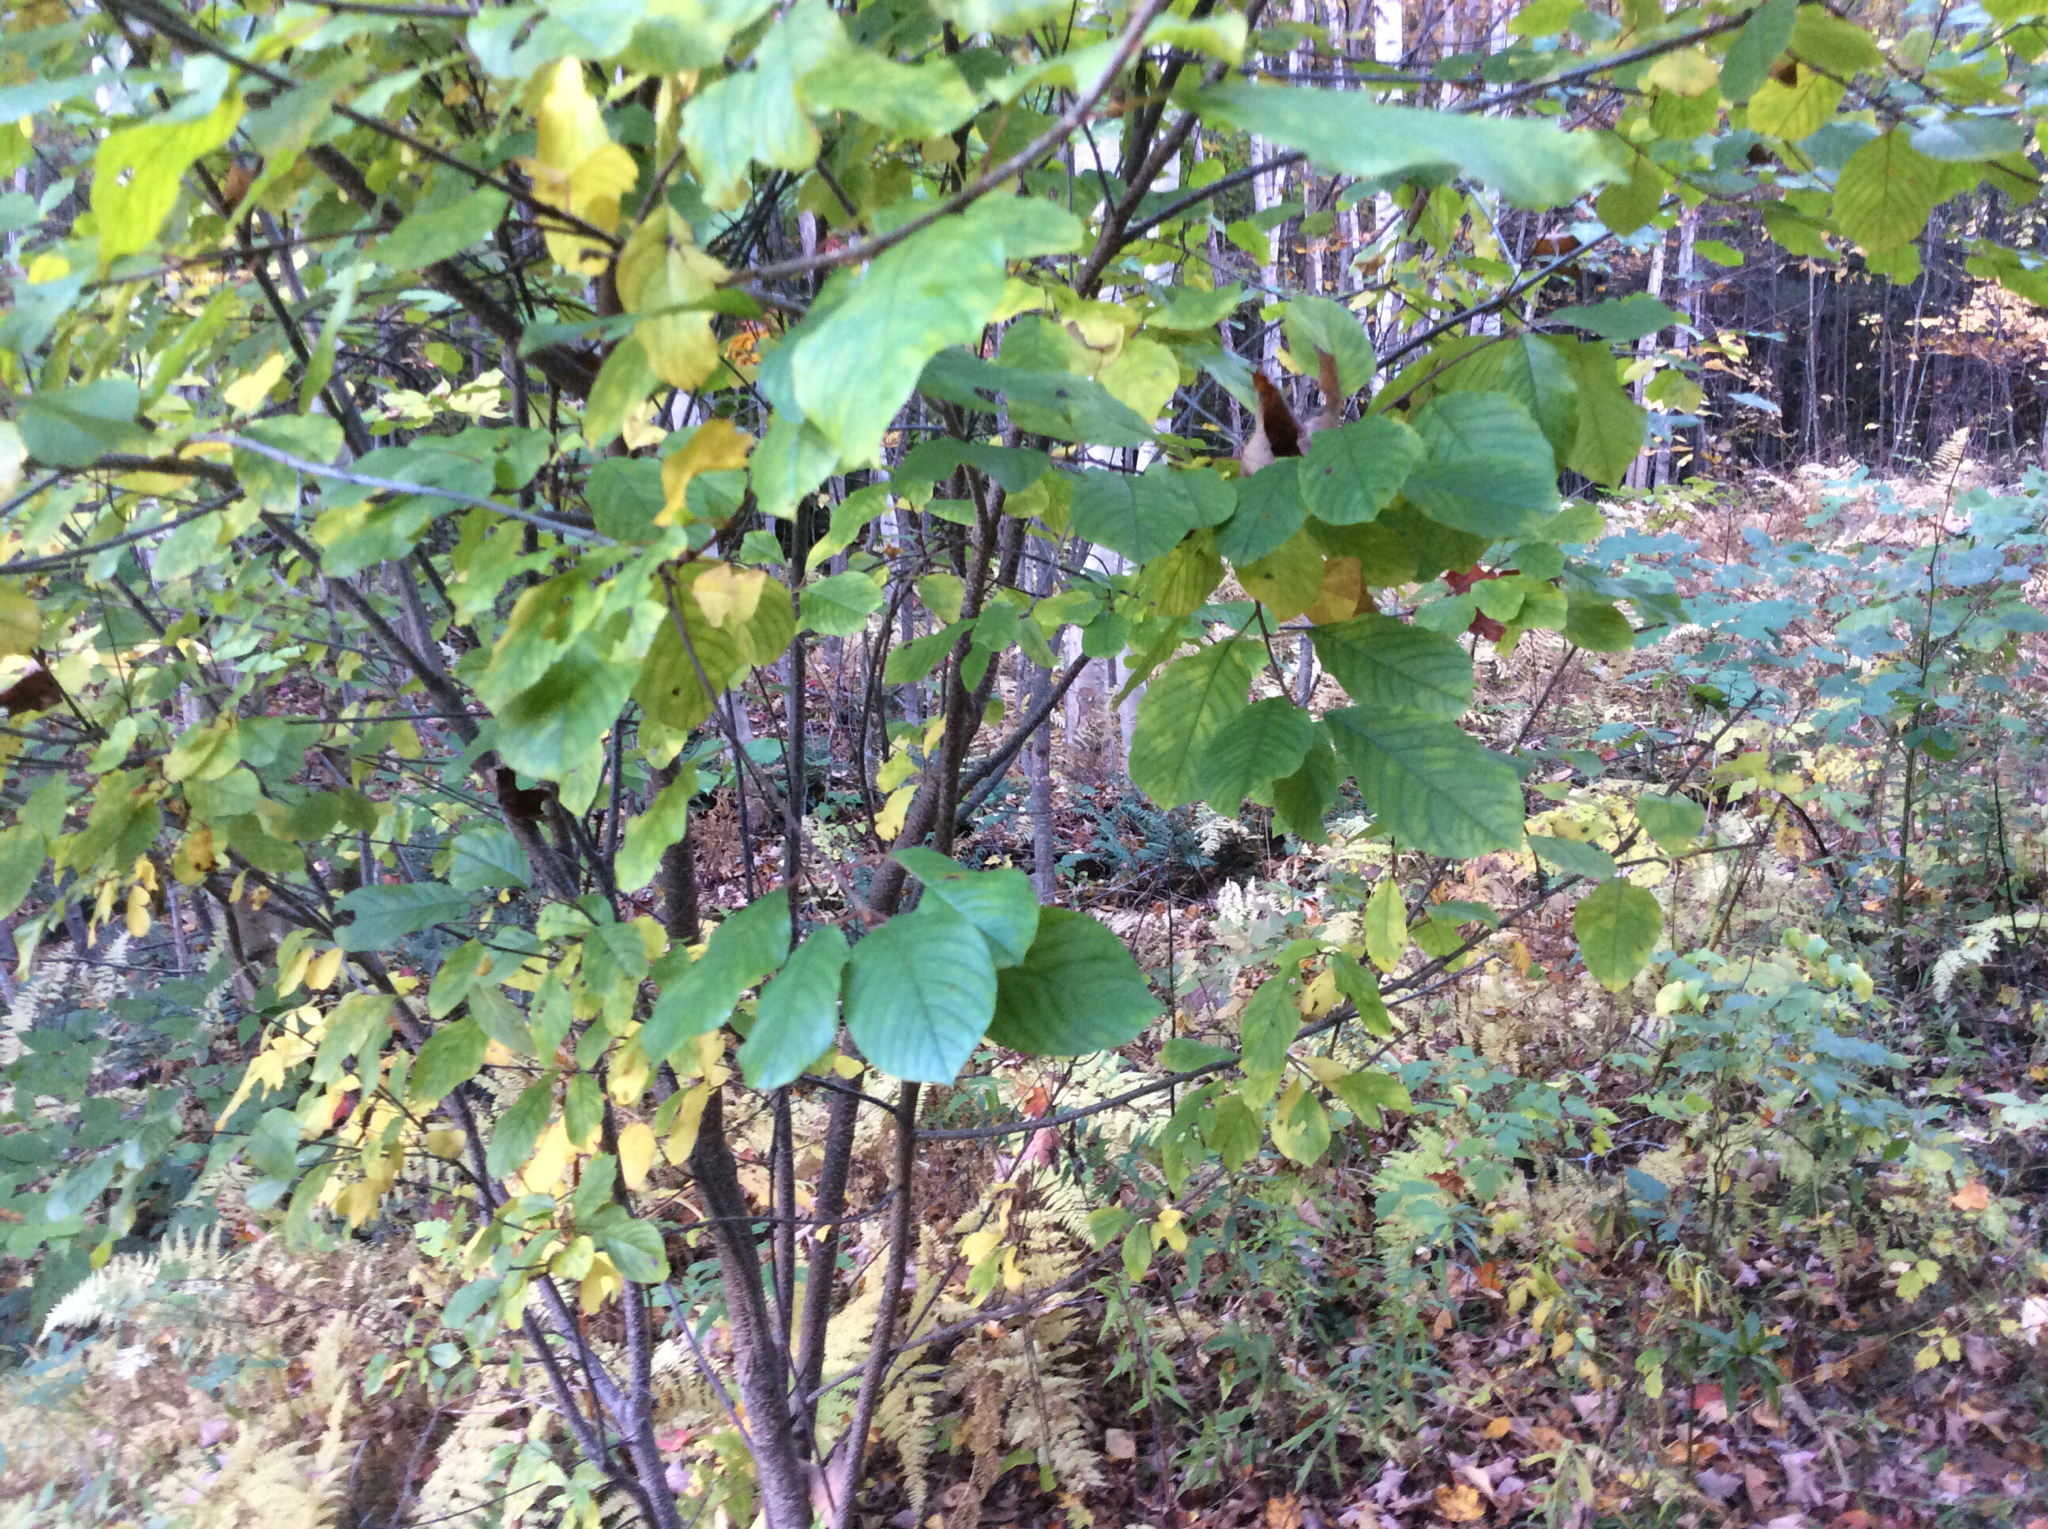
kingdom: Plantae
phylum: Tracheophyta
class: Magnoliopsida
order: Rosales
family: Rhamnaceae
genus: Frangula
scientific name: Frangula alnus
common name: Alder buckthorn
